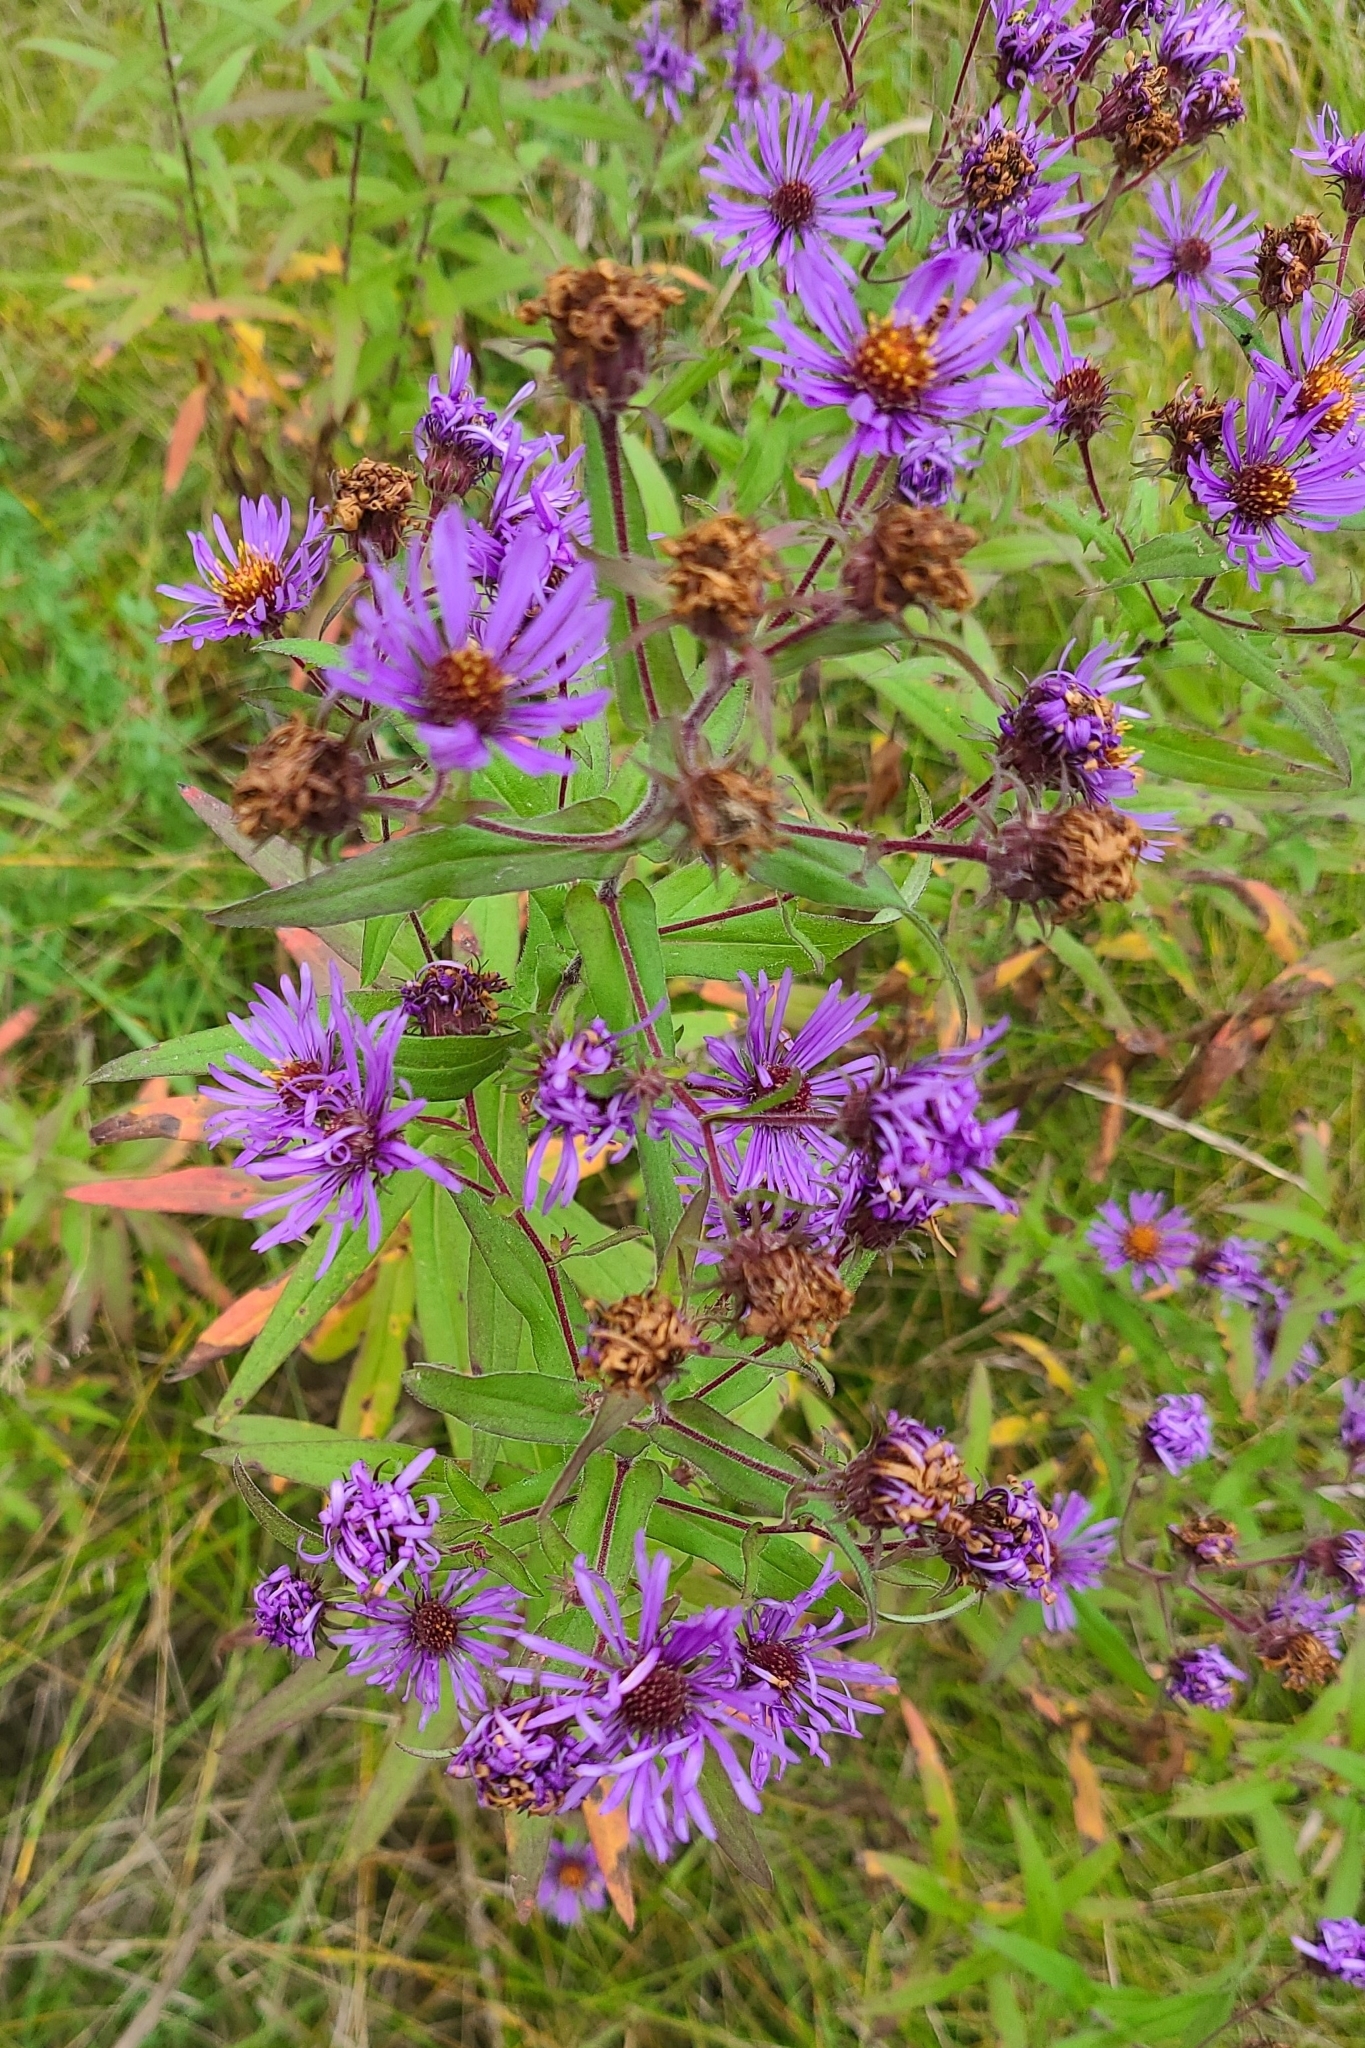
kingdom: Plantae
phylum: Tracheophyta
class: Magnoliopsida
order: Asterales
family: Asteraceae
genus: Symphyotrichum
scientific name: Symphyotrichum novae-angliae
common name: Michaelmas daisy
